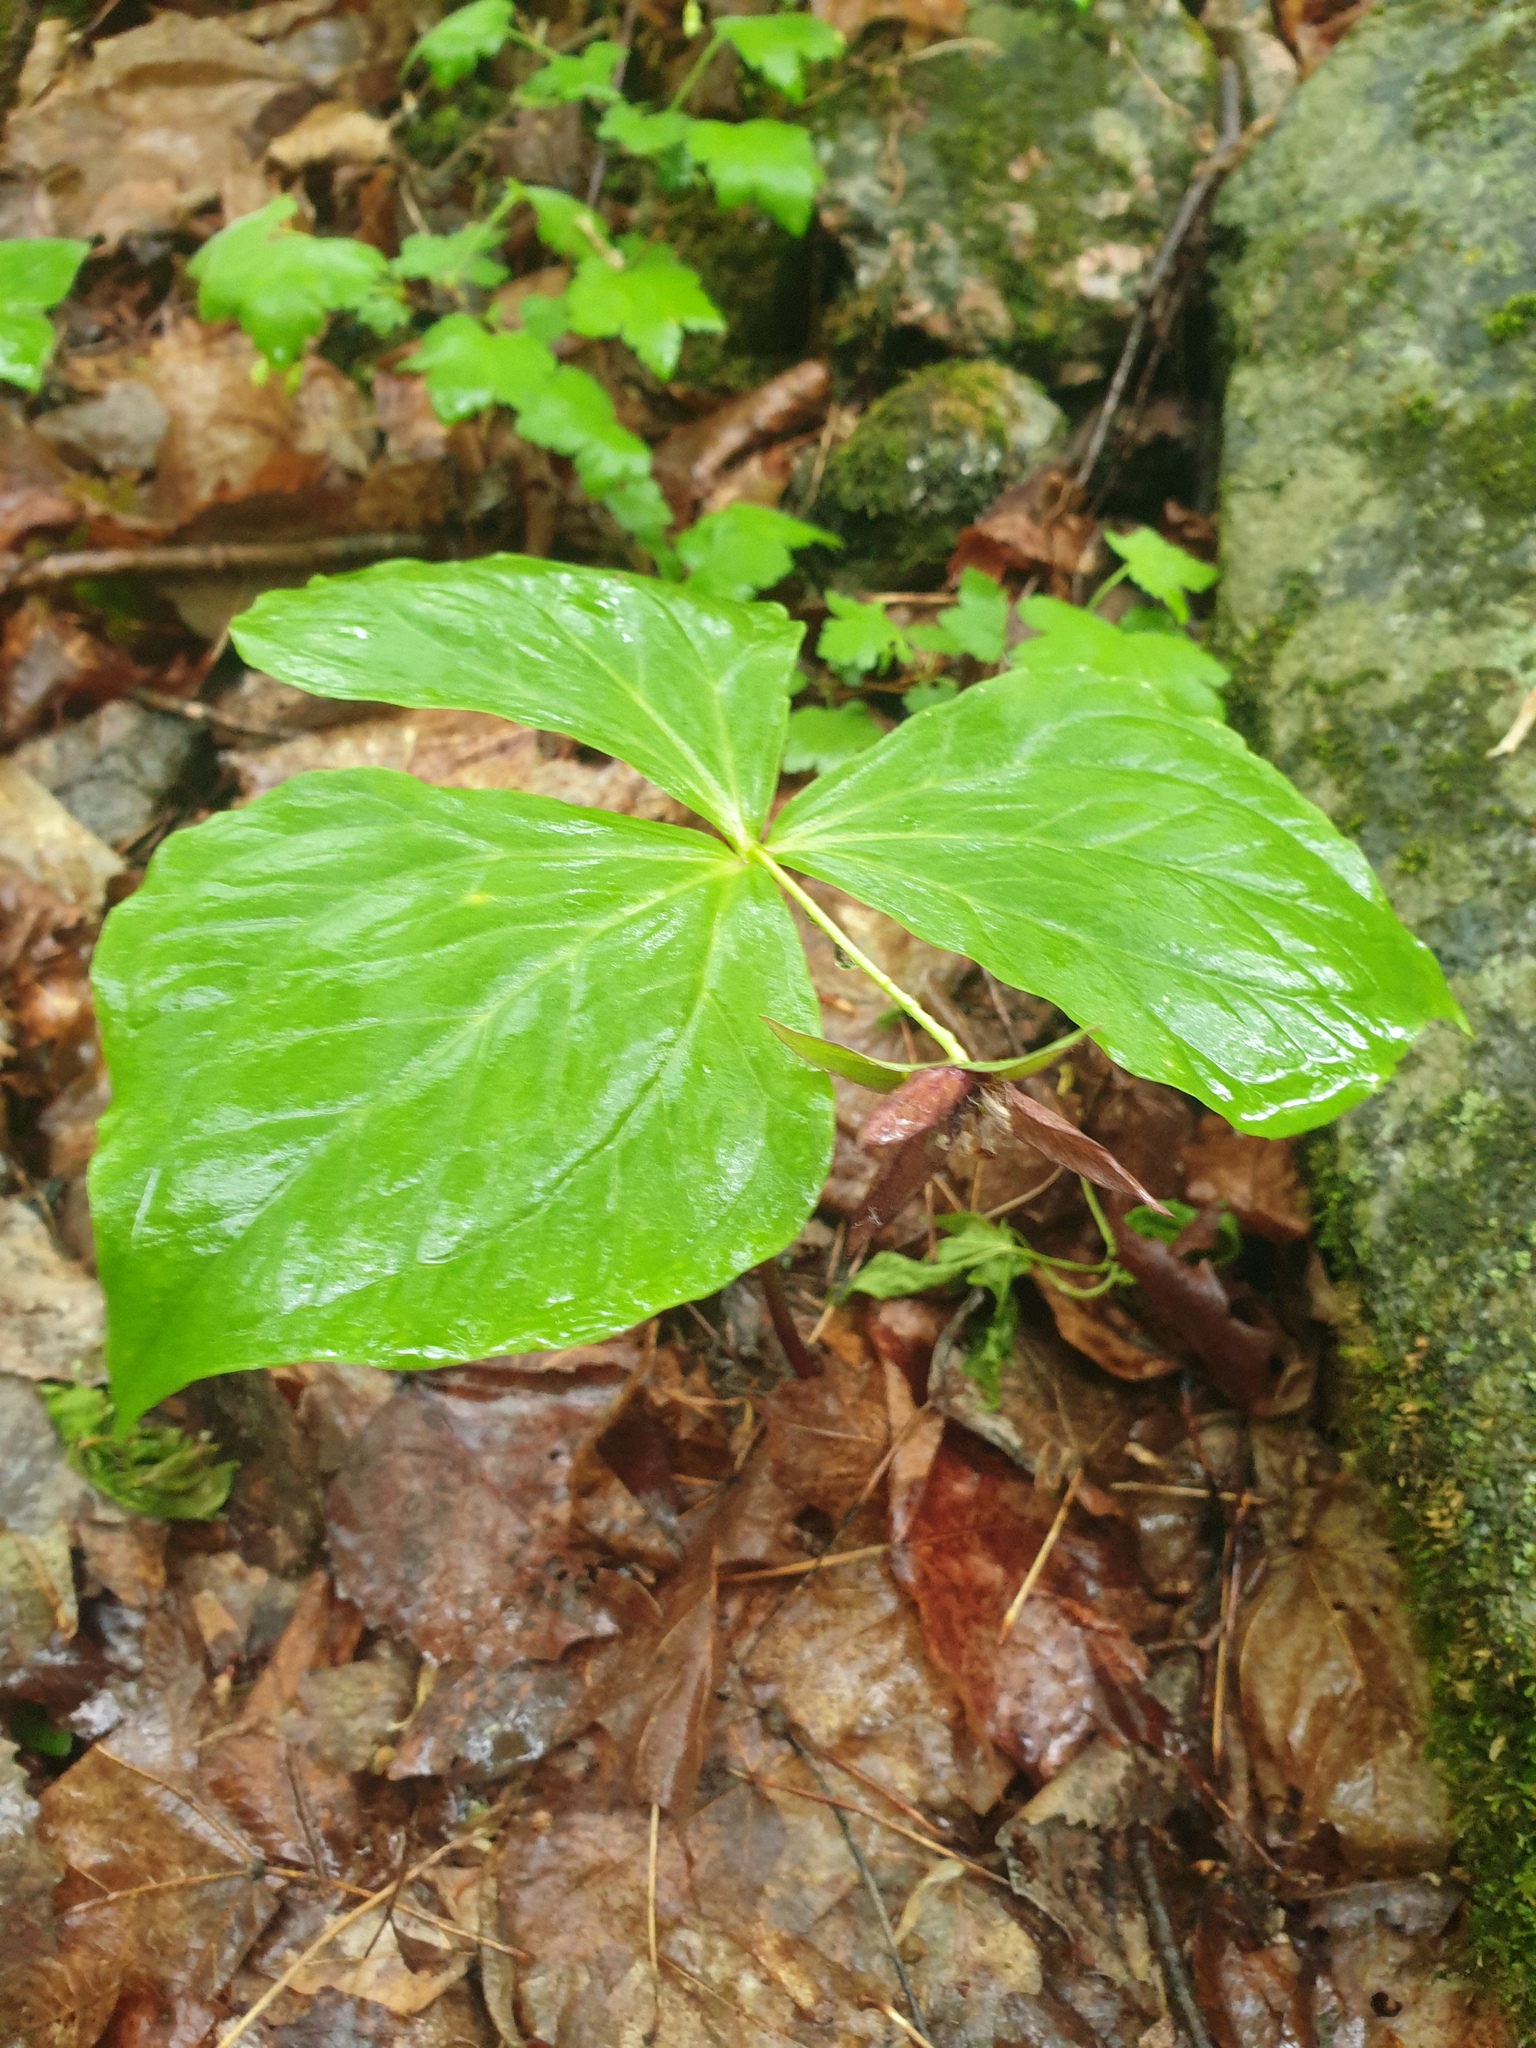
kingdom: Plantae
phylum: Tracheophyta
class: Liliopsida
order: Liliales
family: Melanthiaceae
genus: Trillium
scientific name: Trillium erectum
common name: Purple trillium
